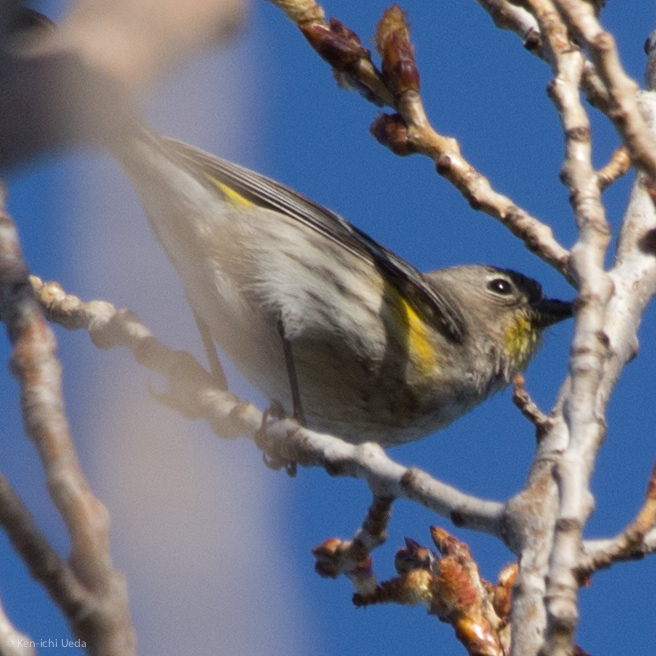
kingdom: Animalia
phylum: Chordata
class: Aves
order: Passeriformes
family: Parulidae
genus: Setophaga
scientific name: Setophaga coronata
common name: Myrtle warbler
